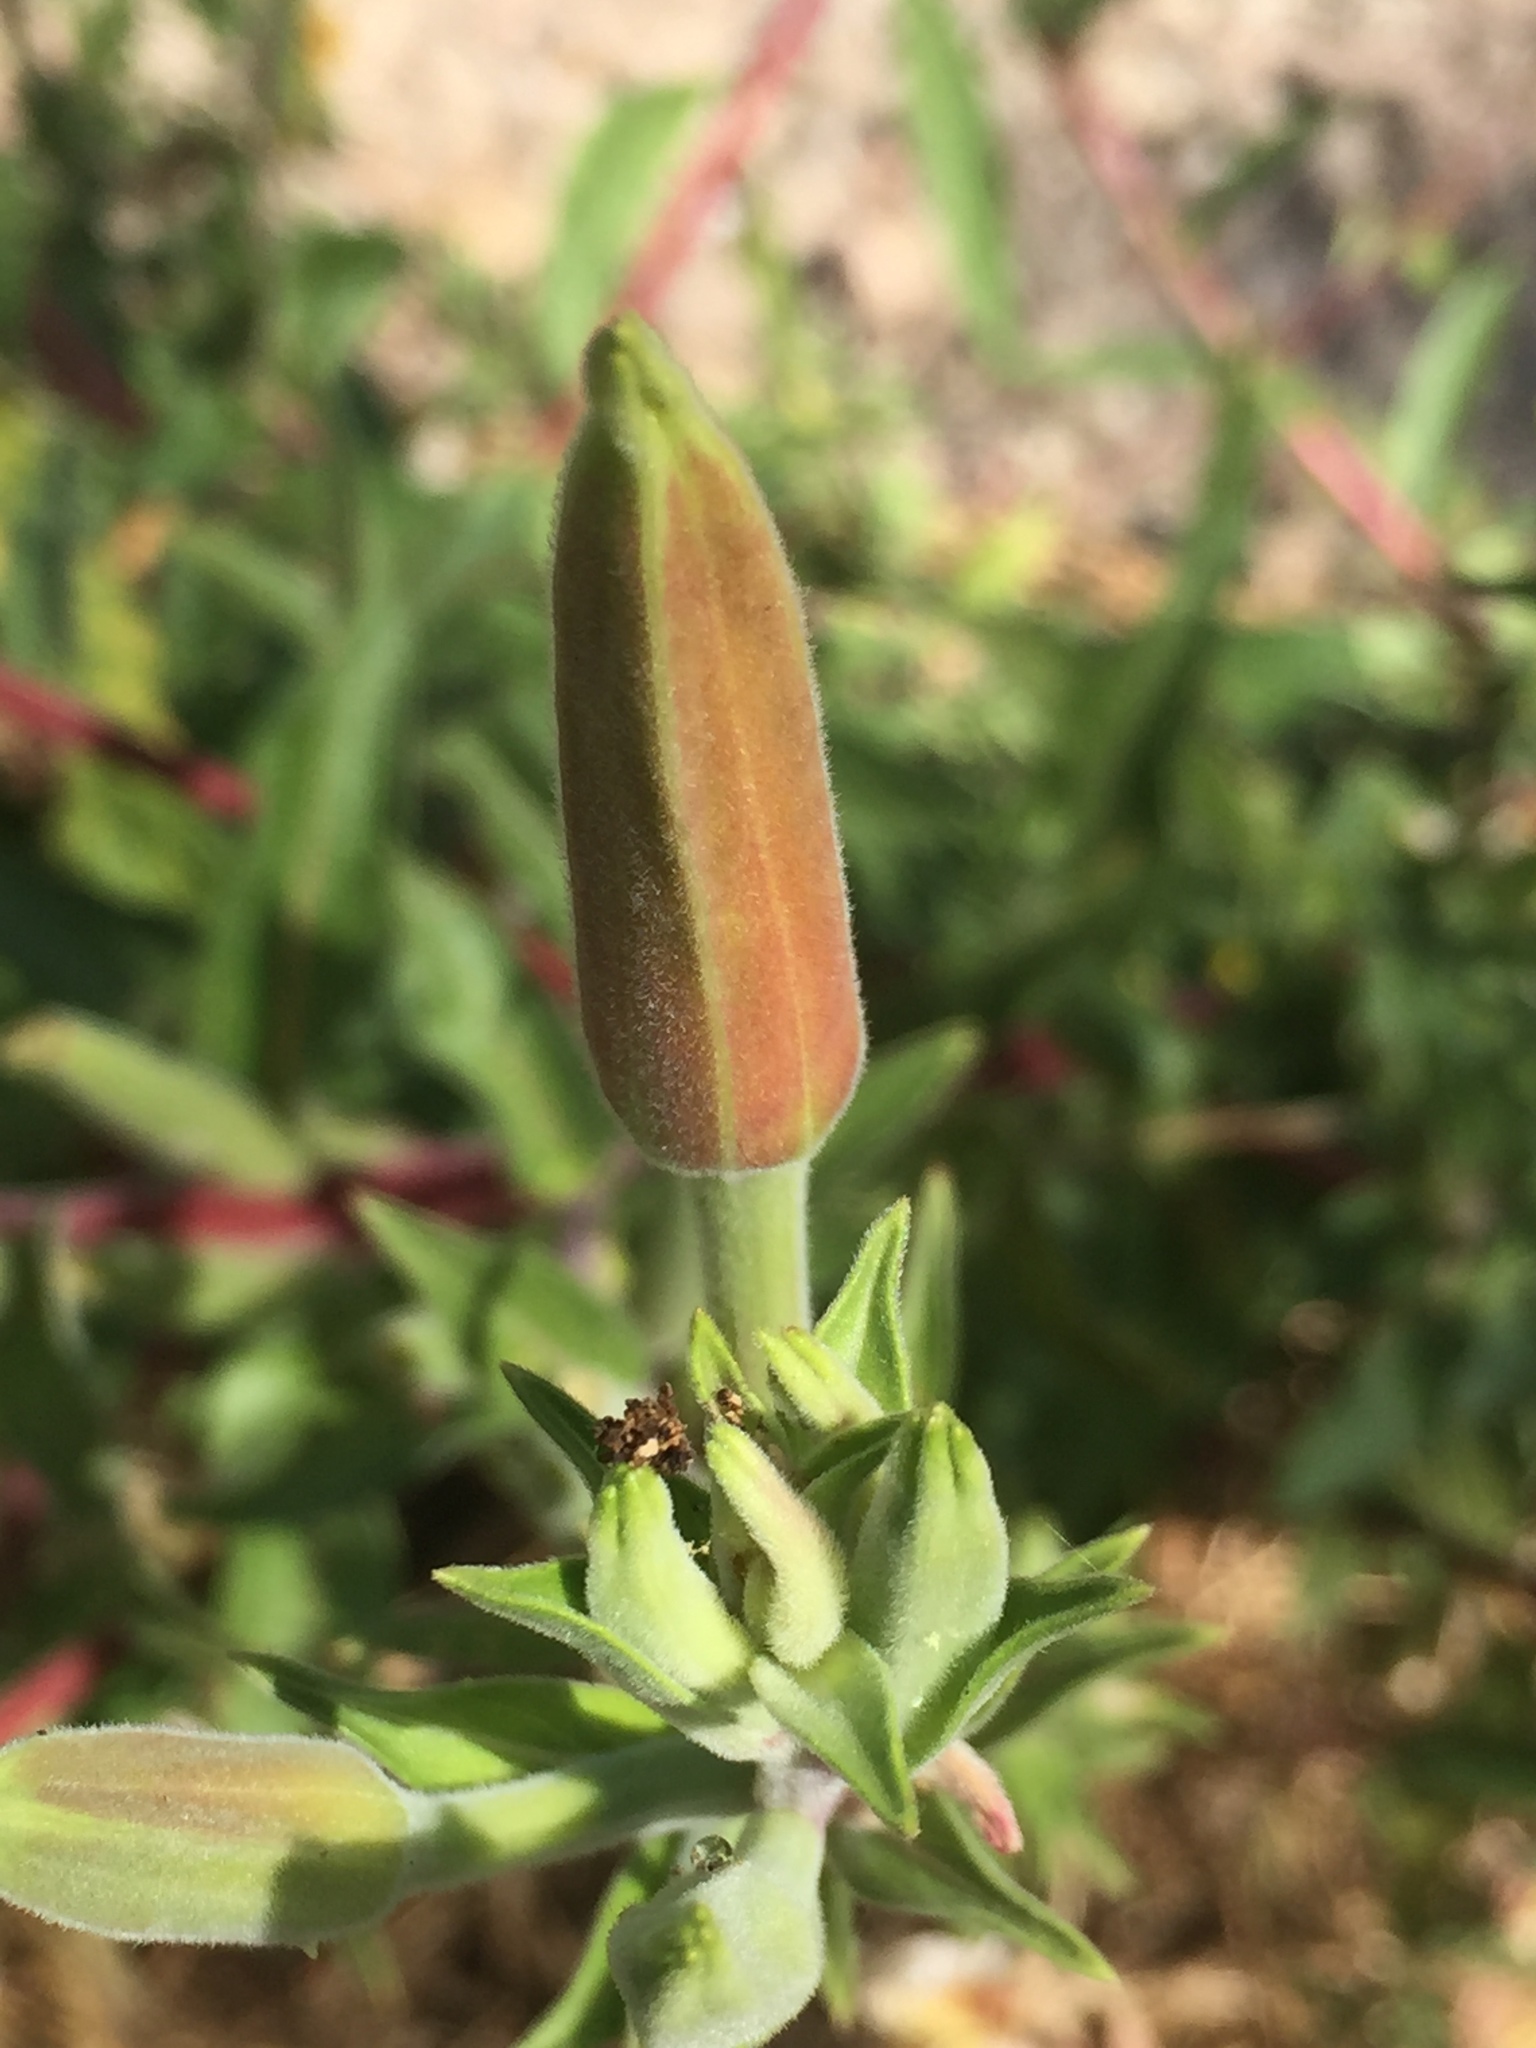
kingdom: Plantae
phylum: Tracheophyta
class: Magnoliopsida
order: Myrtales
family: Onagraceae
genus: Oenothera
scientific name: Oenothera elata
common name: Hooker's evening-primrose
